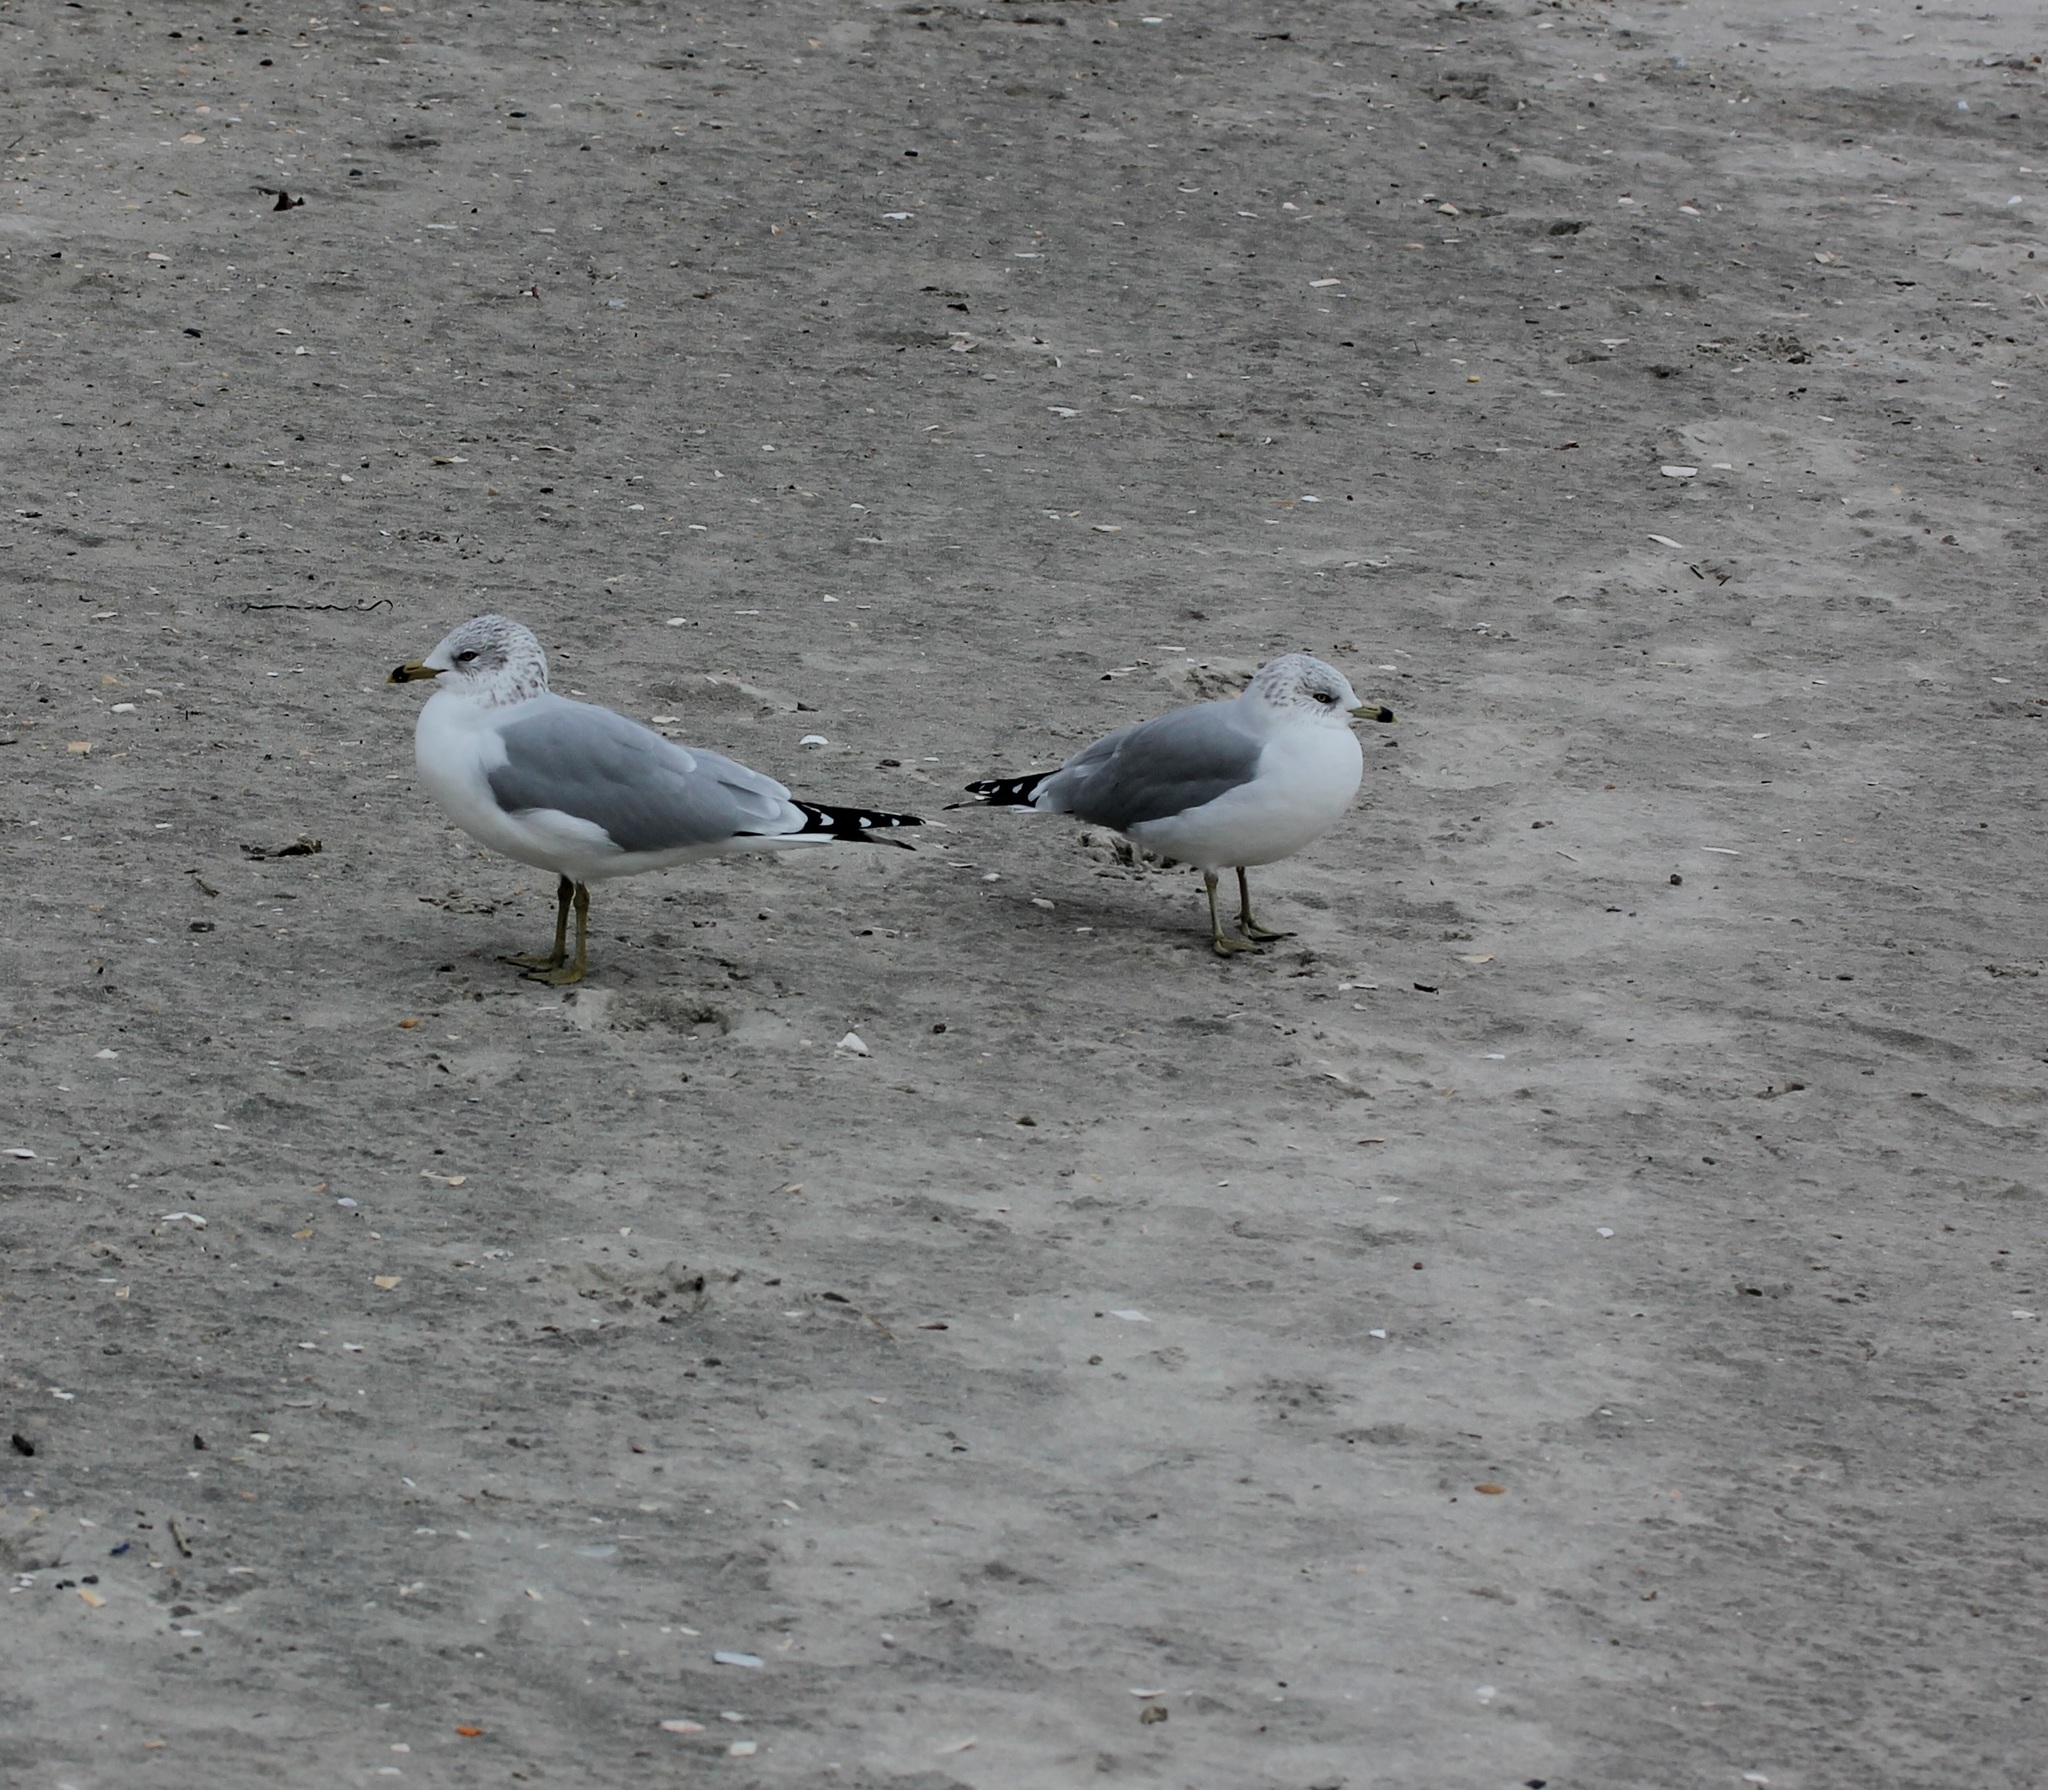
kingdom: Animalia
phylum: Chordata
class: Aves
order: Charadriiformes
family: Laridae
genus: Larus
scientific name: Larus delawarensis
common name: Ring-billed gull
